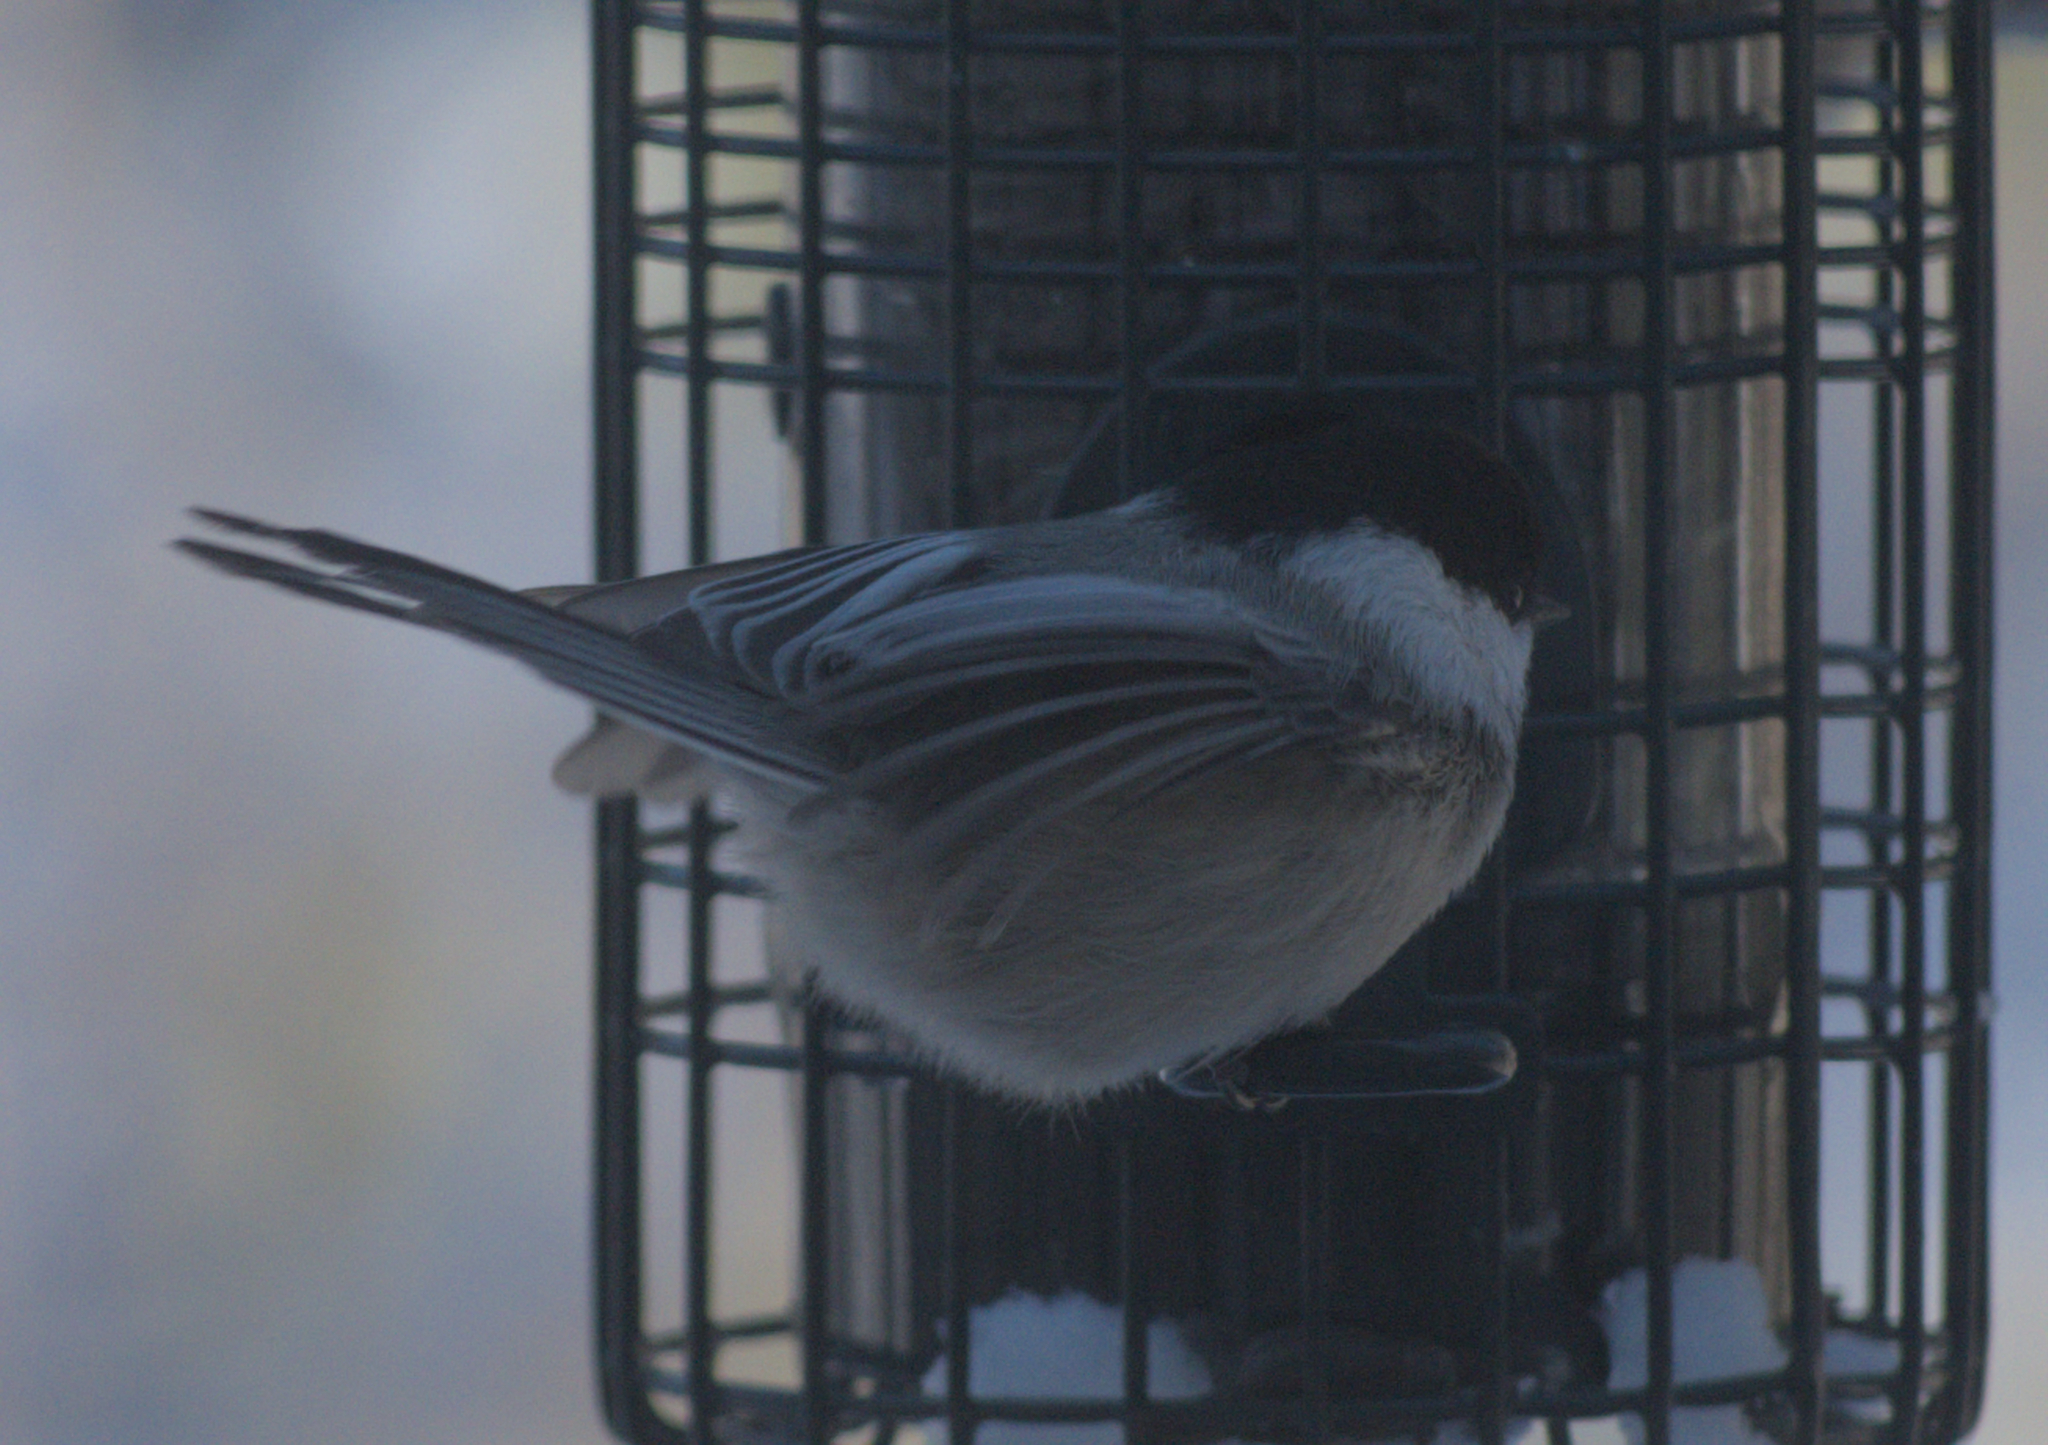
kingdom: Animalia
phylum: Chordata
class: Aves
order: Passeriformes
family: Paridae
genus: Poecile
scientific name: Poecile atricapillus
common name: Black-capped chickadee
